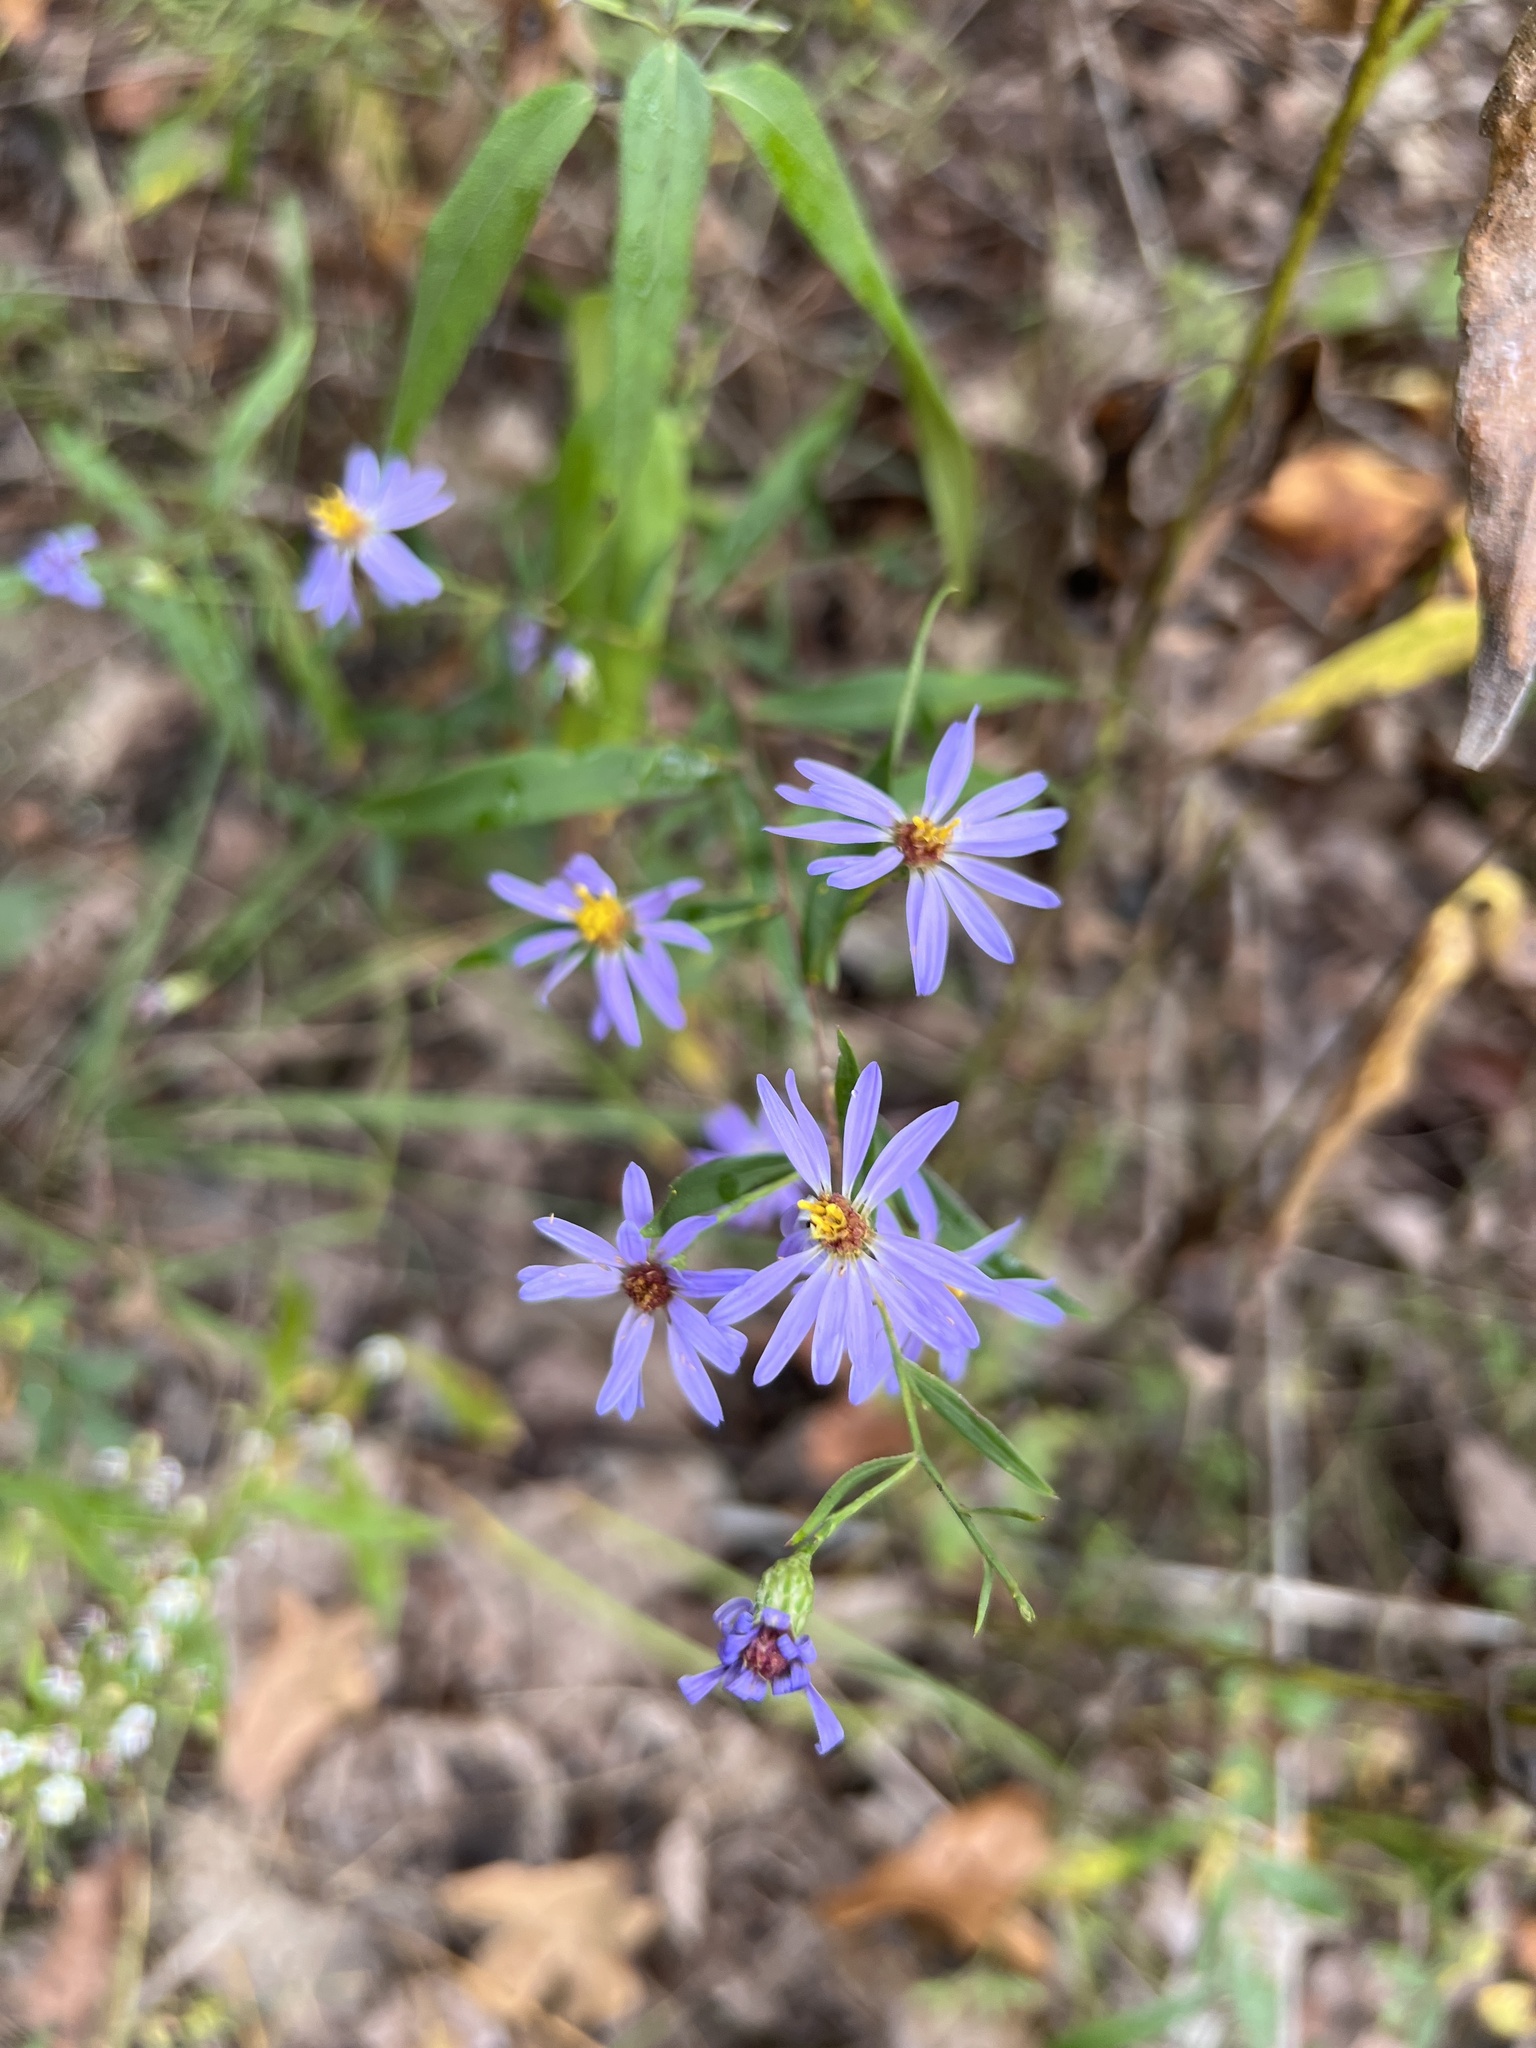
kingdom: Plantae
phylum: Tracheophyta
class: Magnoliopsida
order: Asterales
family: Asteraceae
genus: Symphyotrichum
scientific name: Symphyotrichum turbinellum
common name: Prairie aster
